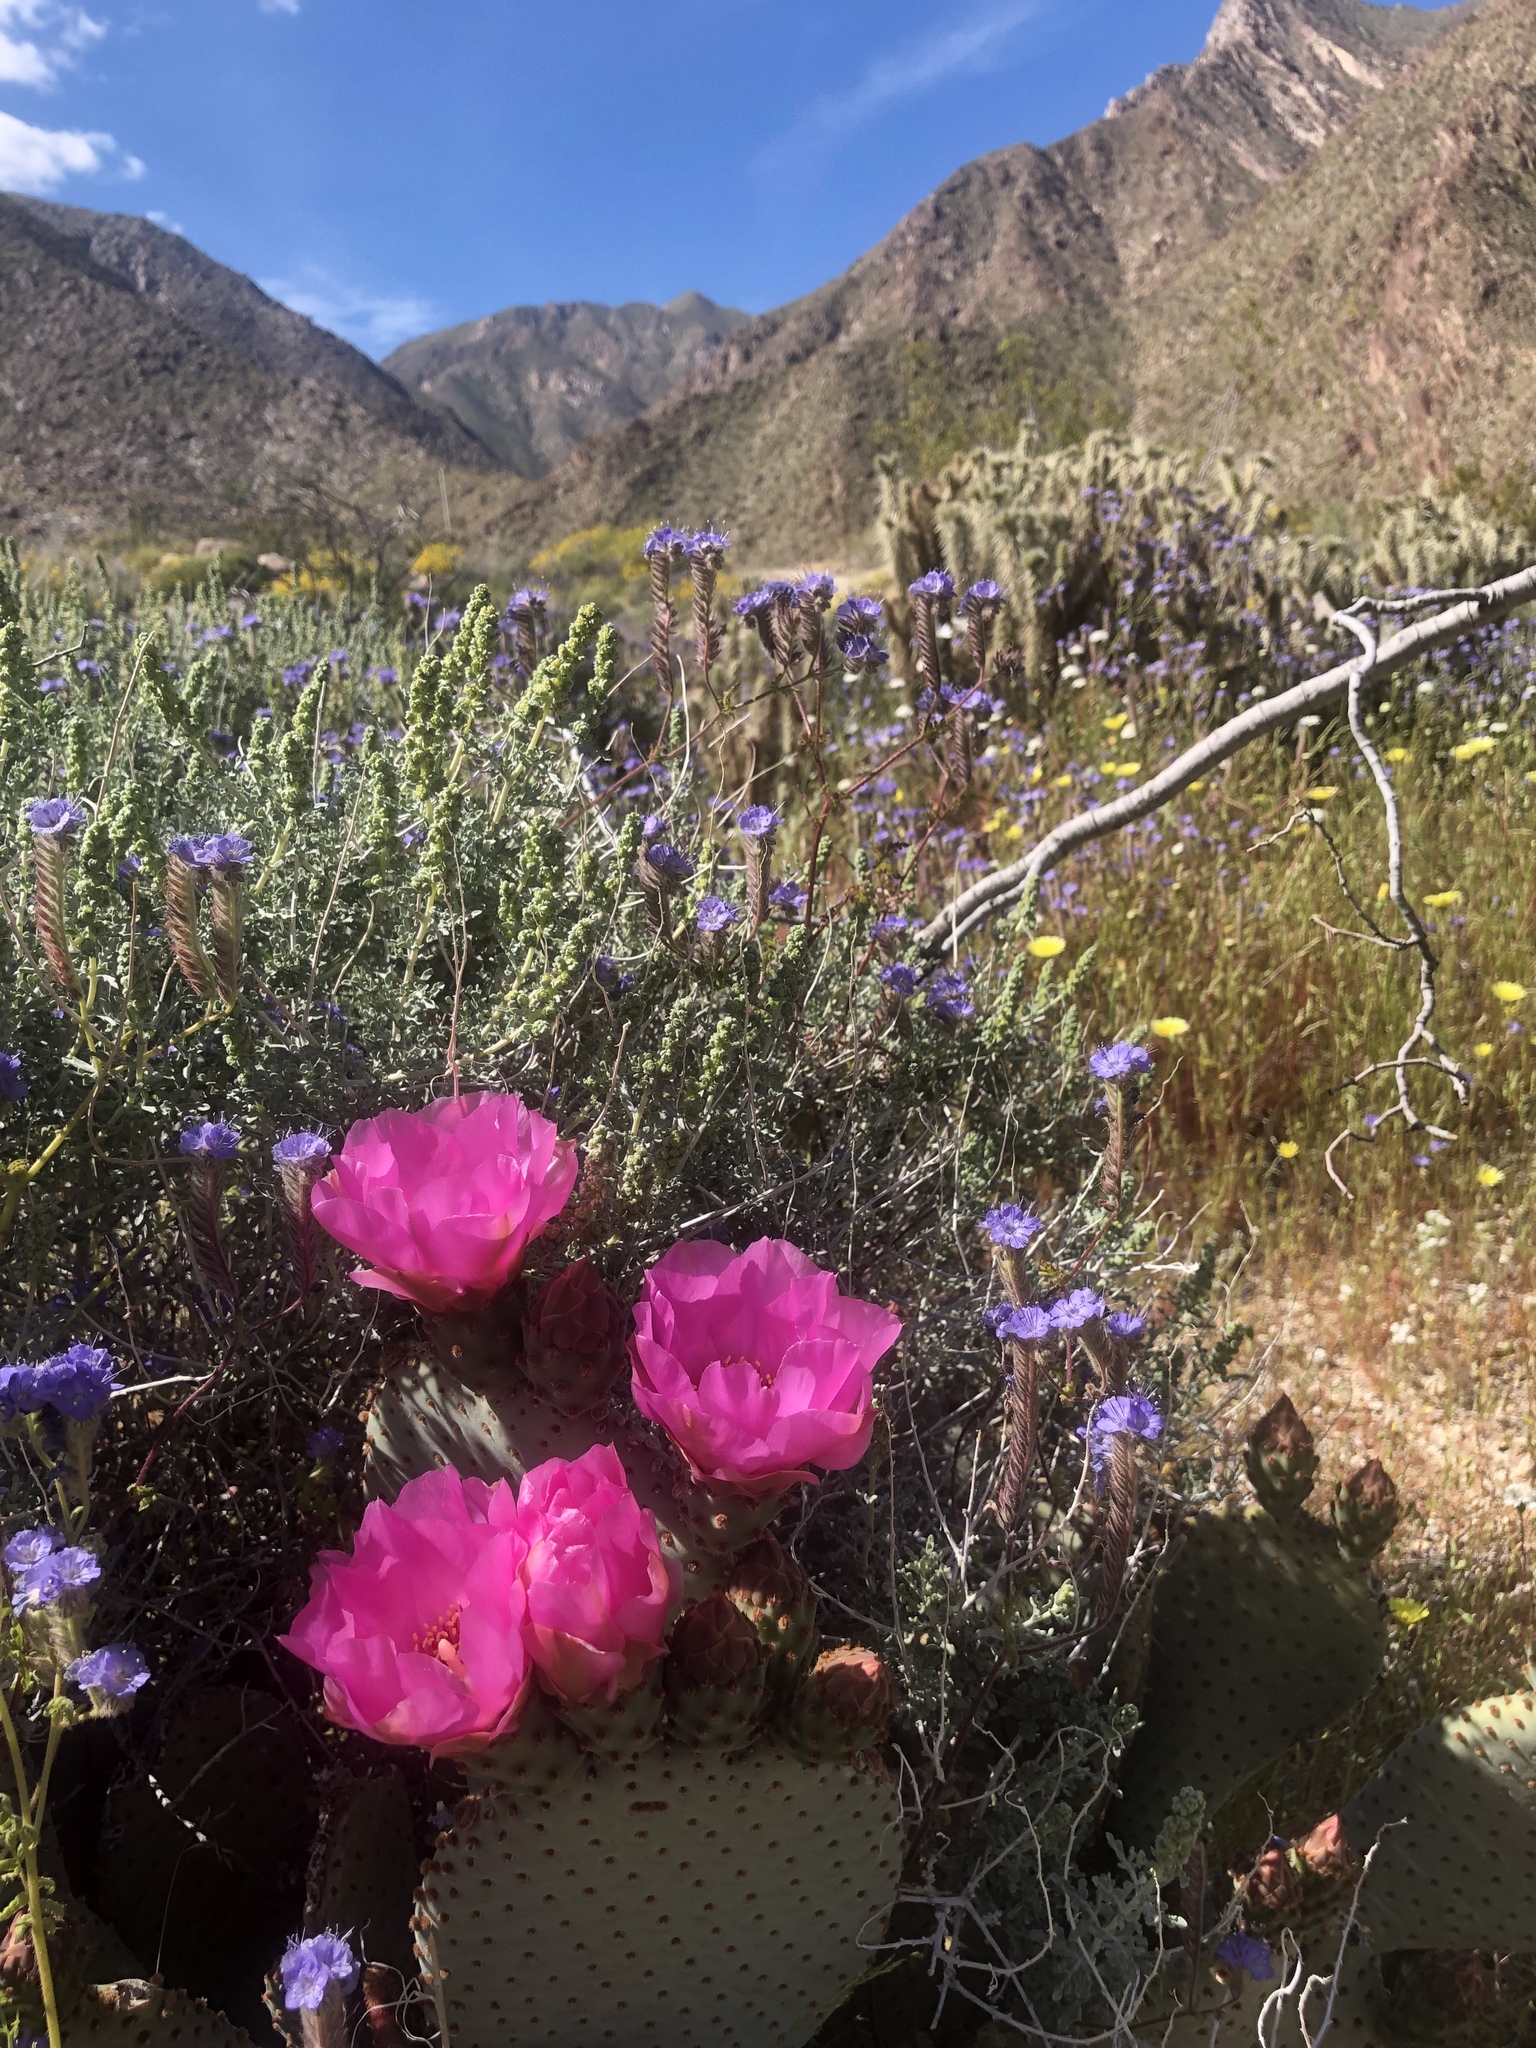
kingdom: Plantae
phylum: Tracheophyta
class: Magnoliopsida
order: Caryophyllales
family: Cactaceae
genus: Opuntia
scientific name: Opuntia basilaris
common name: Beavertail prickly-pear
